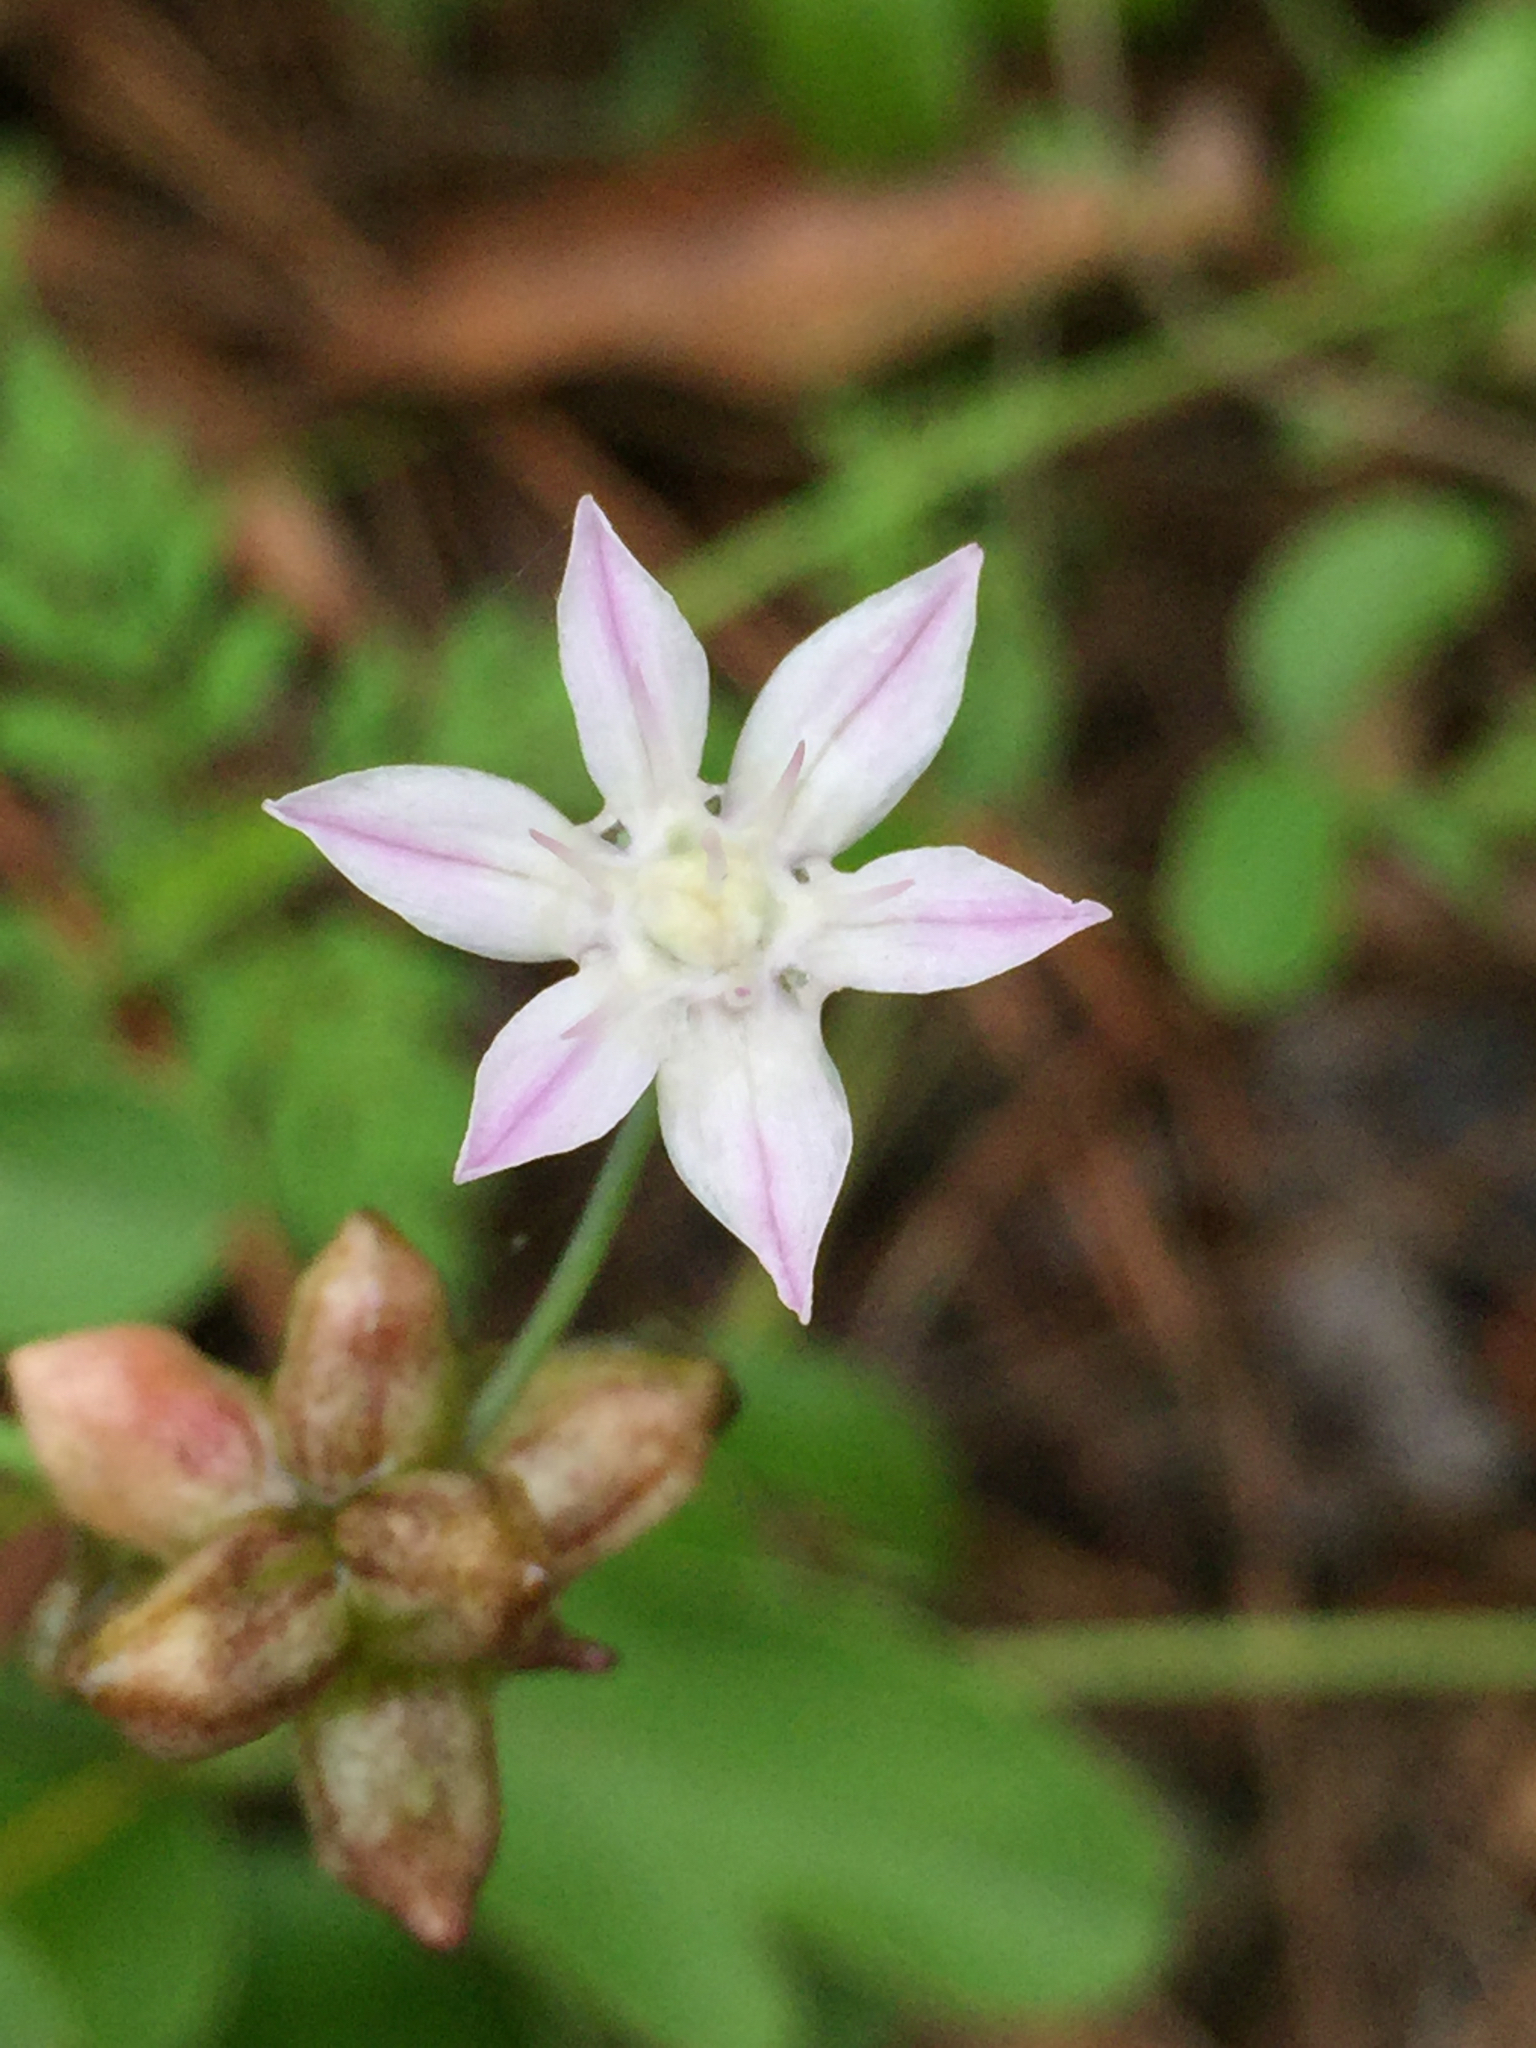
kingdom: Plantae
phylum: Tracheophyta
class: Liliopsida
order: Asparagales
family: Amaryllidaceae
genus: Allium
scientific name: Allium canadense
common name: Meadow garlic
